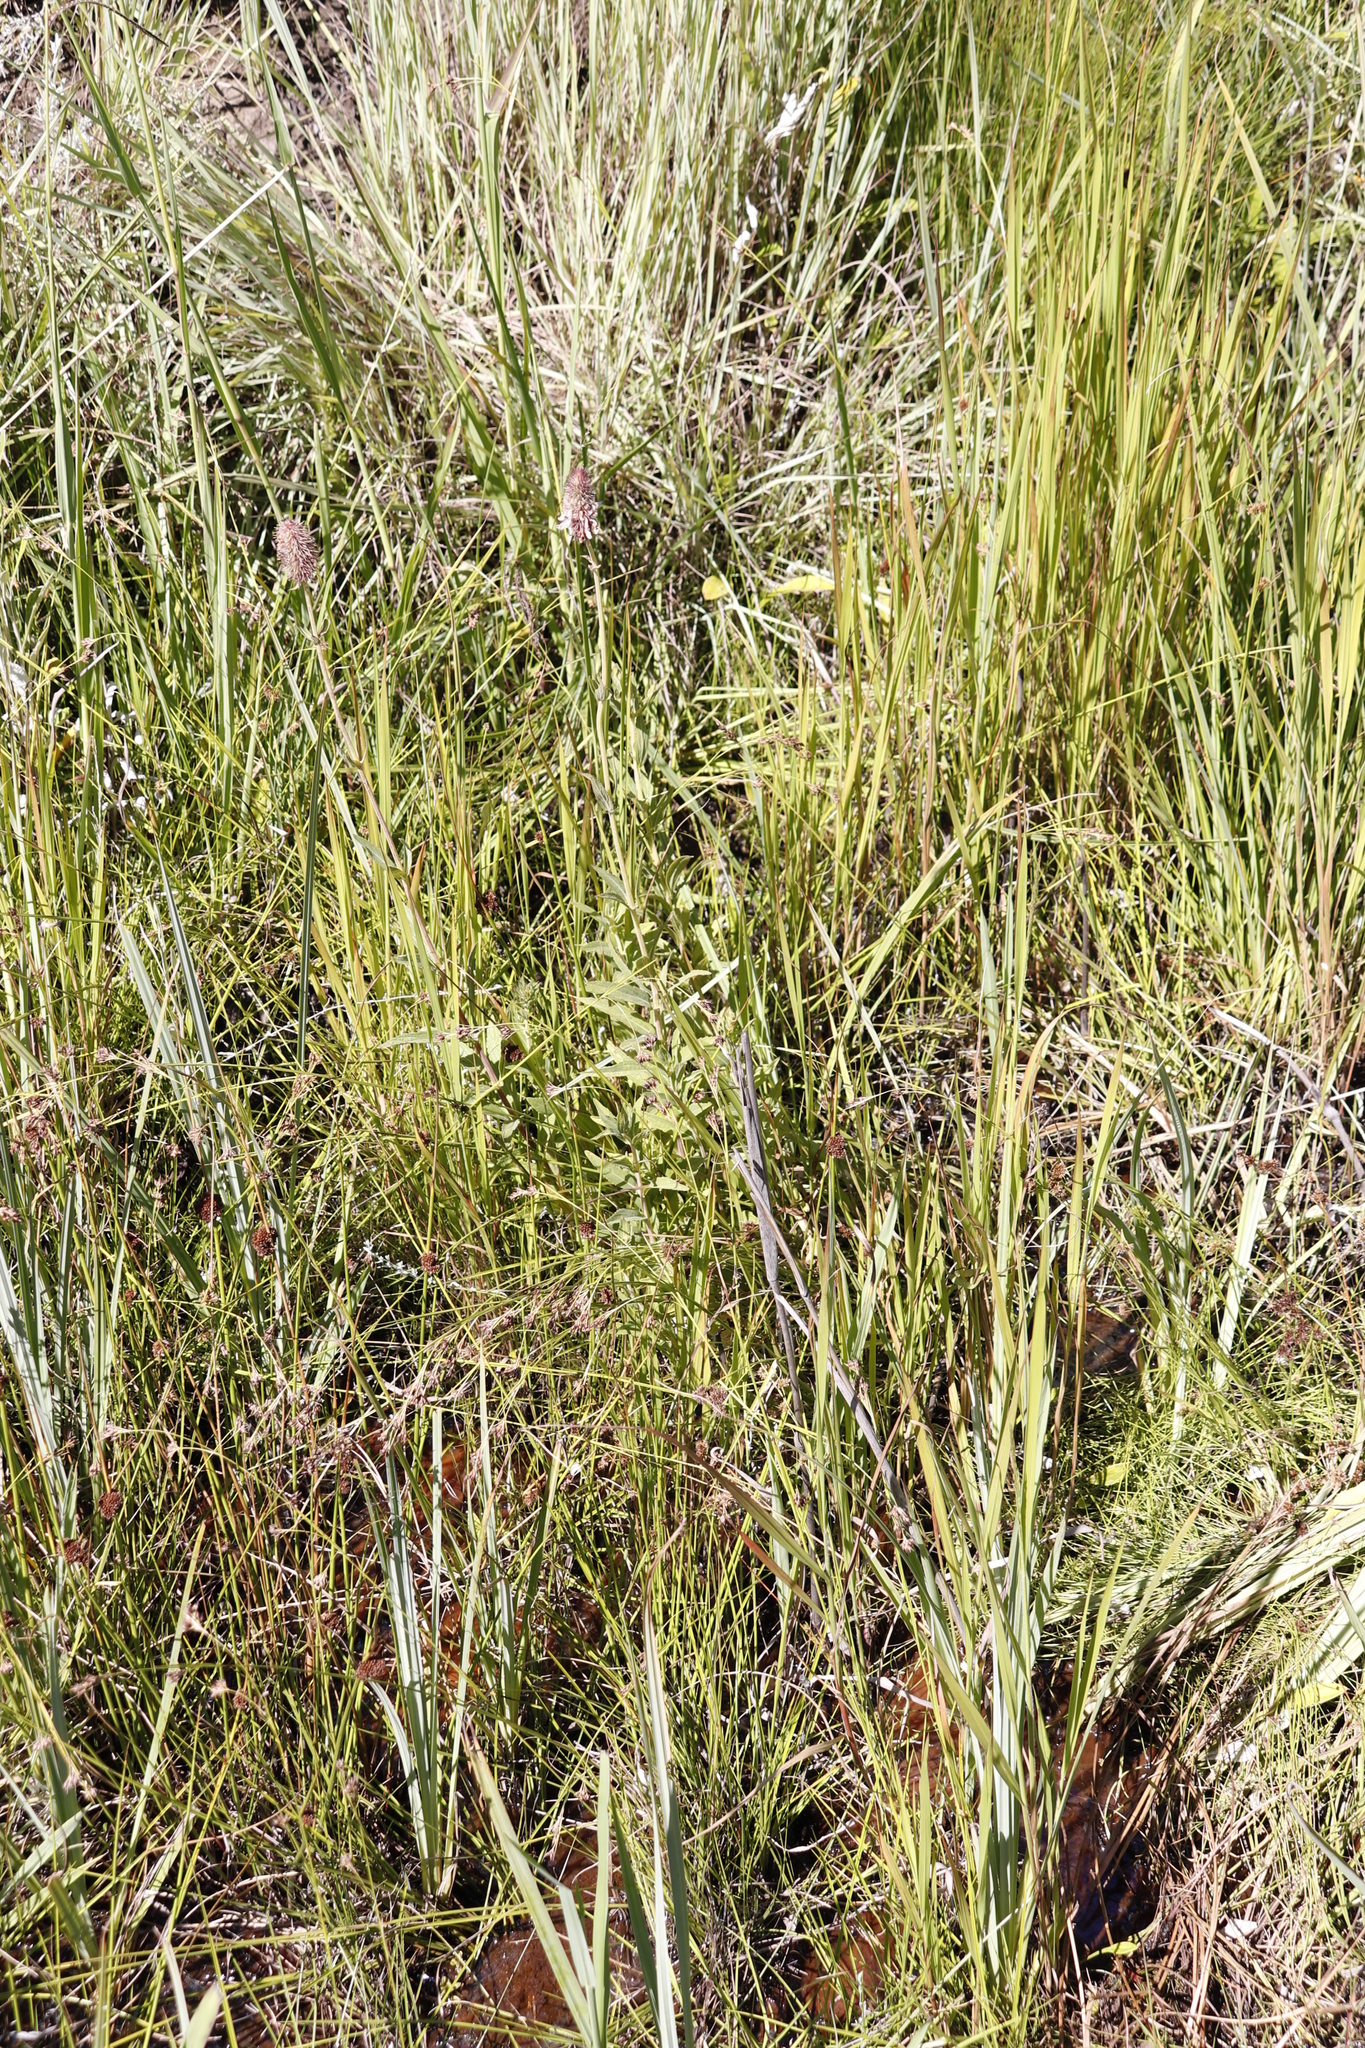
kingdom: Plantae
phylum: Tracheophyta
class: Magnoliopsida
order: Lamiales
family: Lamiaceae
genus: Coleus
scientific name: Coleus kirkii
